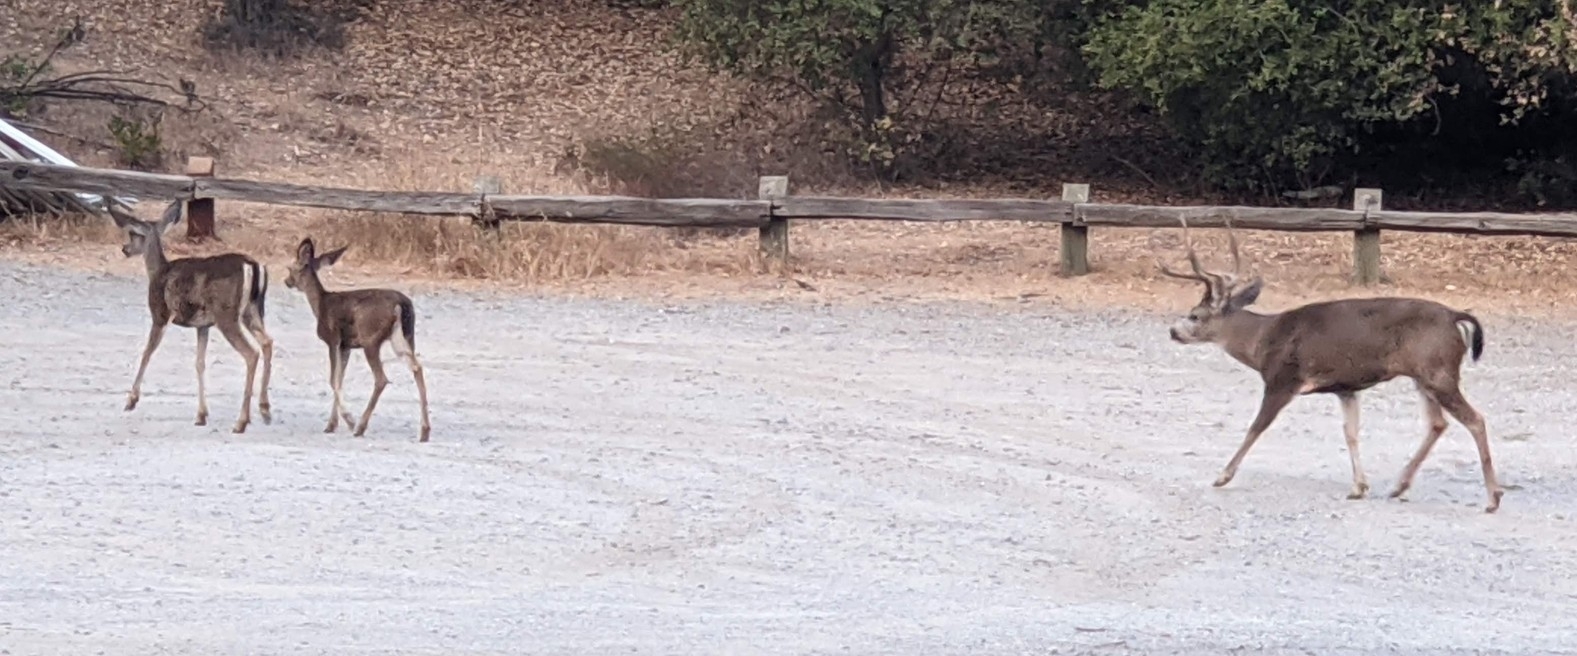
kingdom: Animalia
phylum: Chordata
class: Mammalia
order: Artiodactyla
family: Cervidae
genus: Odocoileus
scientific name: Odocoileus hemionus
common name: Mule deer
